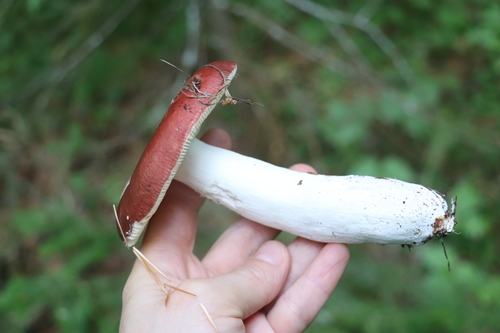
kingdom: Fungi
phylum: Basidiomycota
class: Agaricomycetes
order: Russulales
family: Russulaceae
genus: Russula
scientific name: Russula
